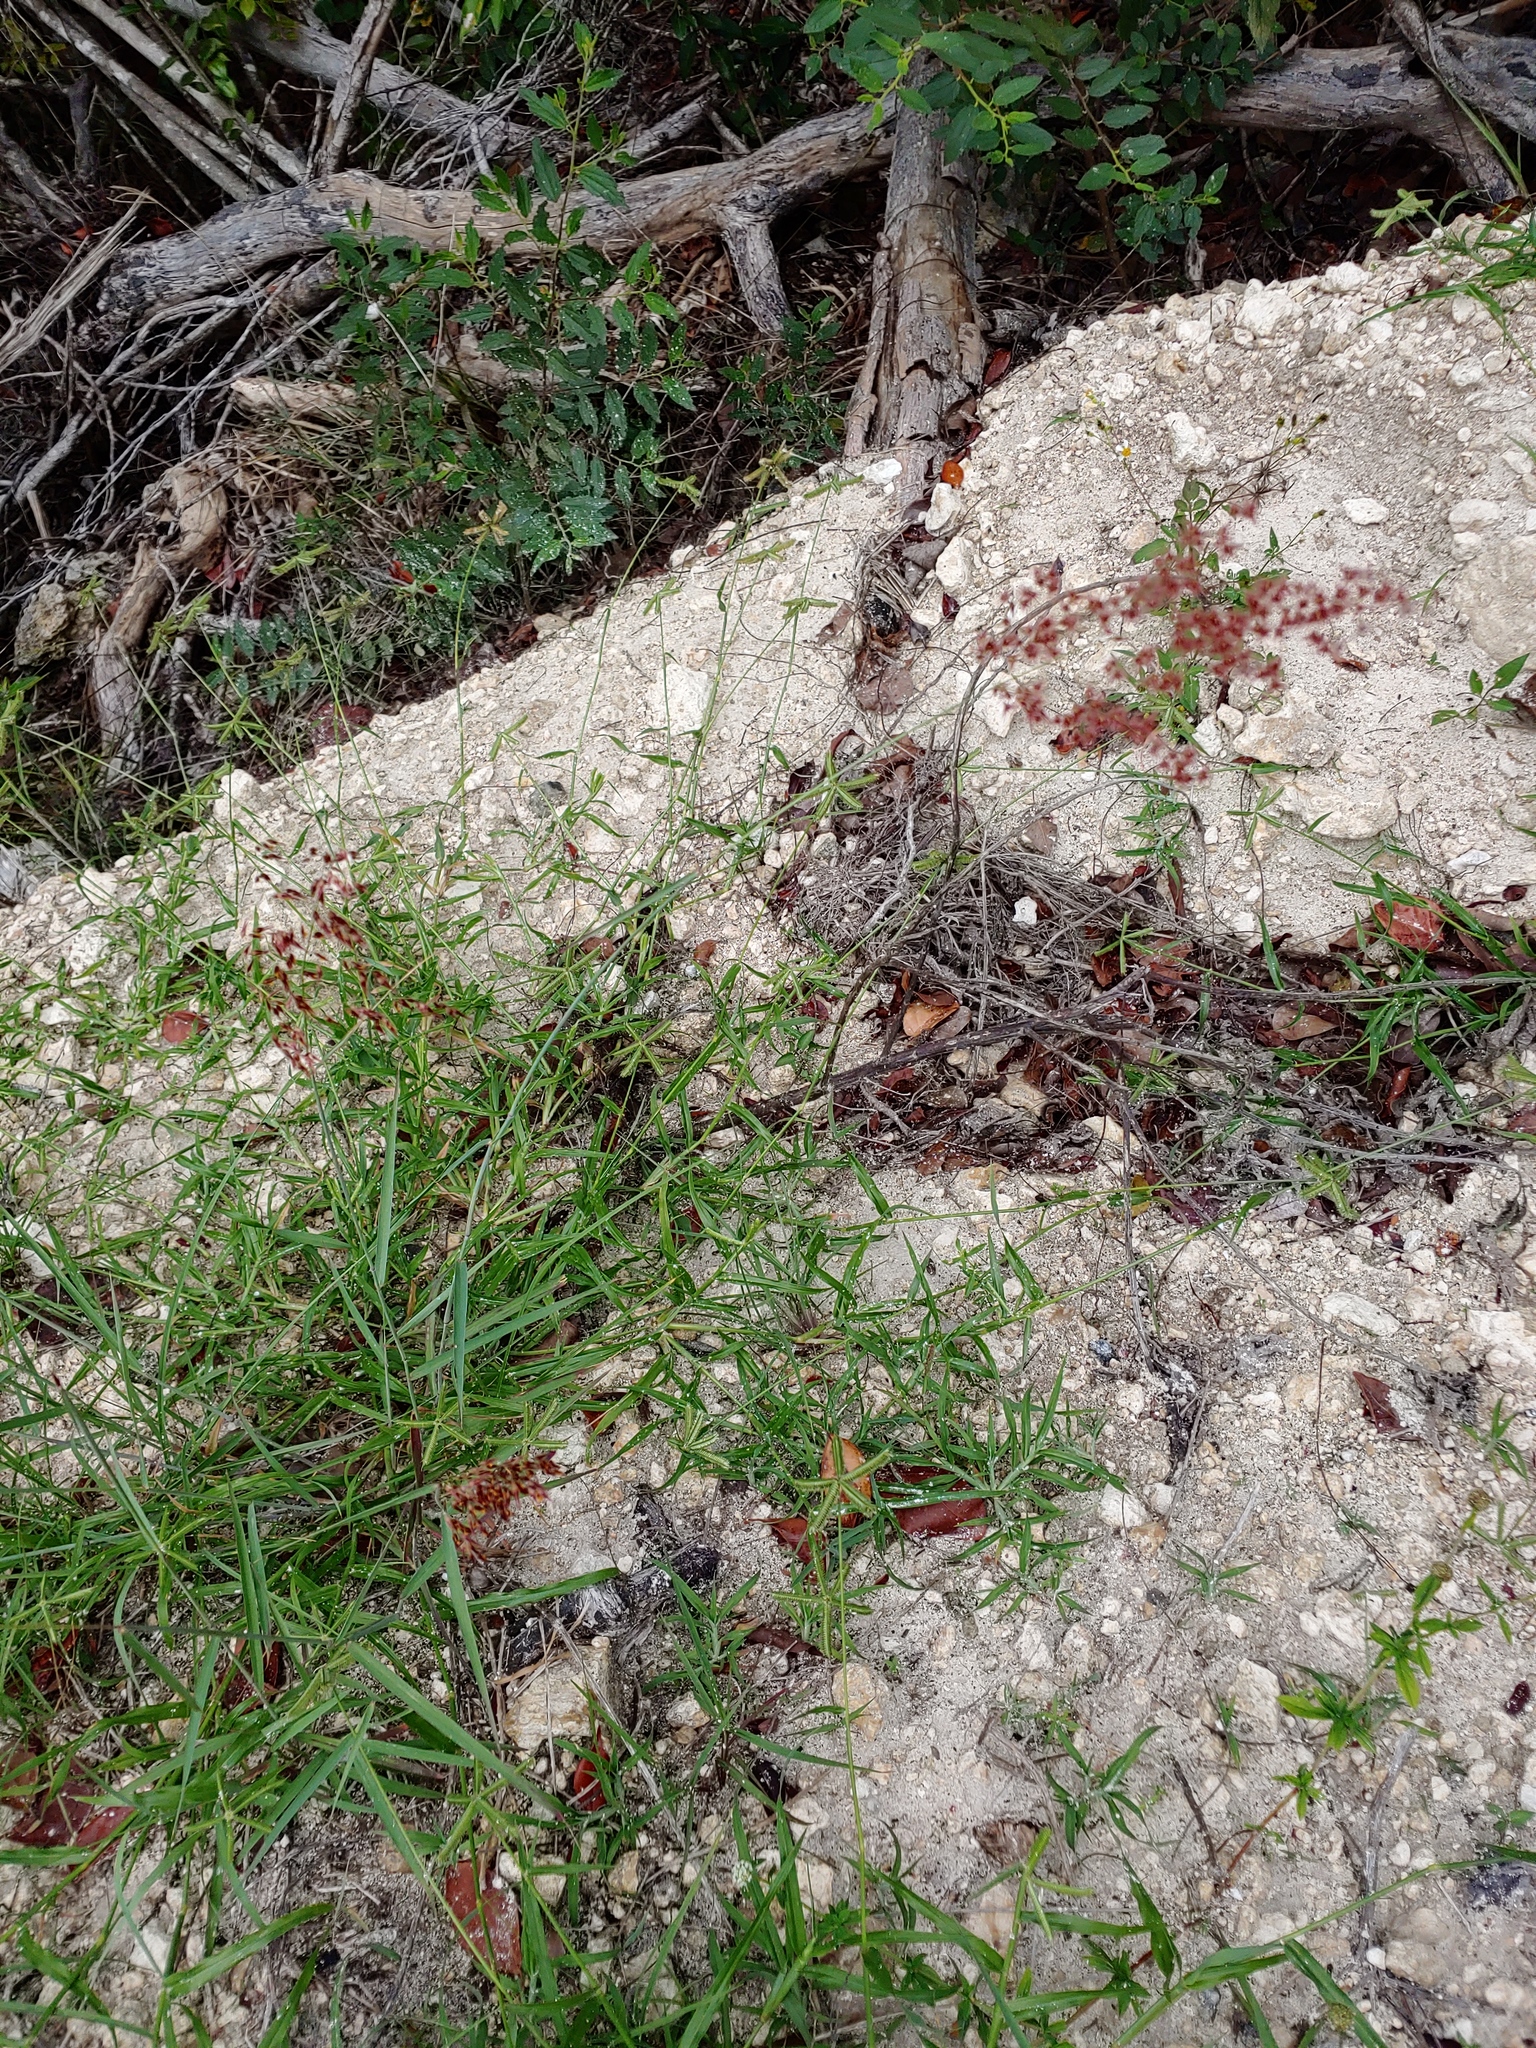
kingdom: Plantae
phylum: Tracheophyta
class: Liliopsida
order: Poales
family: Poaceae
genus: Melinis
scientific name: Melinis repens
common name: Rose natal grass
